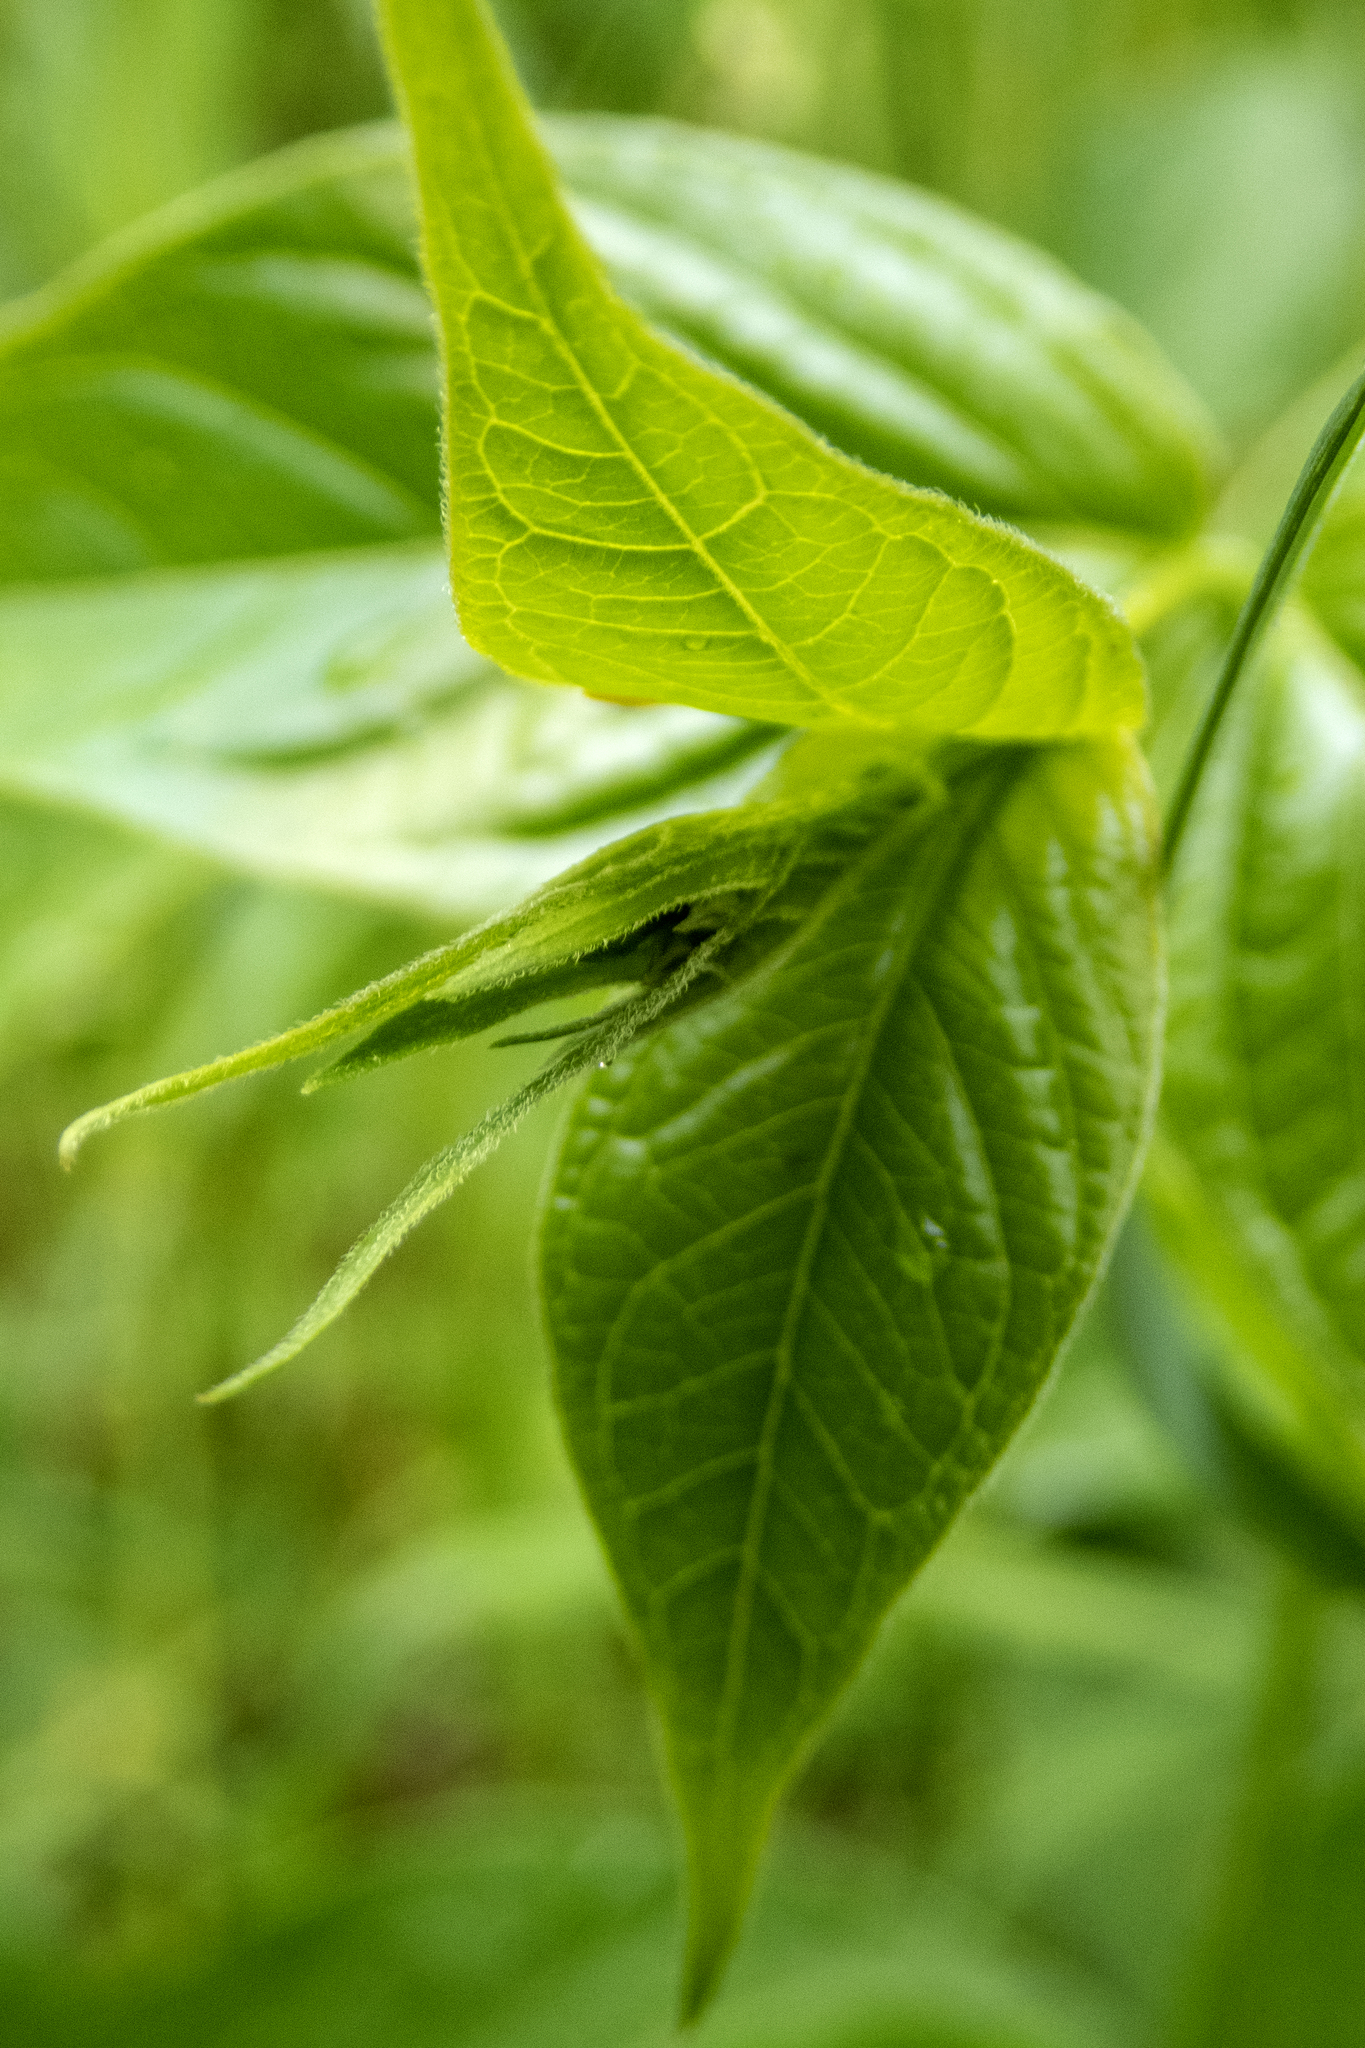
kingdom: Plantae
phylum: Tracheophyta
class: Magnoliopsida
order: Gentianales
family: Apocynaceae
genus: Vincetoxicum
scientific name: Vincetoxicum rossicum
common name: Dog-strangling vine
